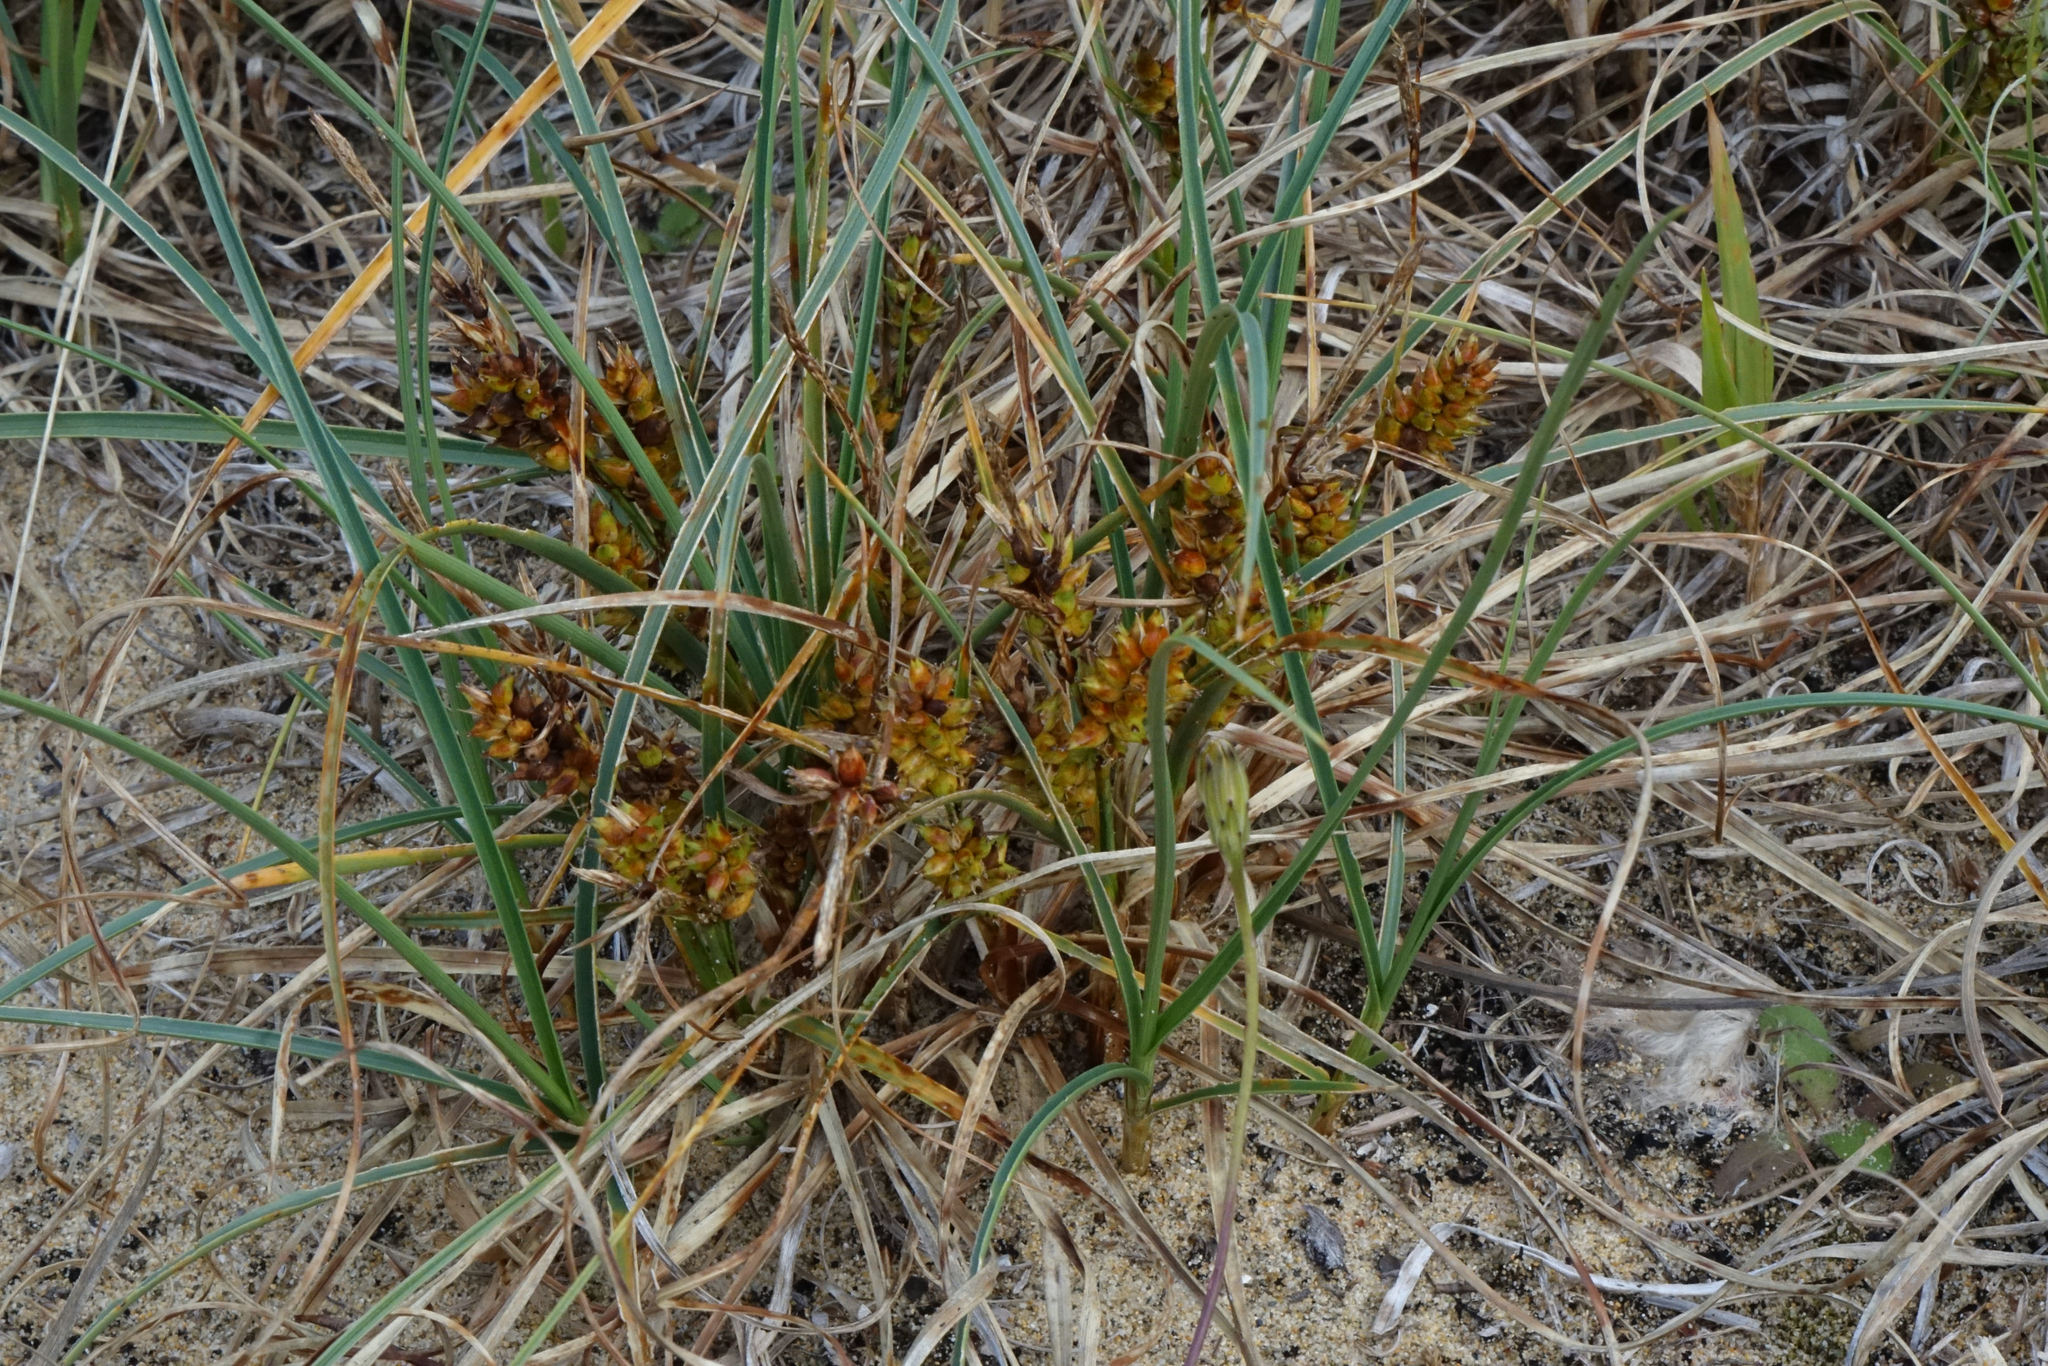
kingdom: Plantae
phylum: Tracheophyta
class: Liliopsida
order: Poales
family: Cyperaceae
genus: Carex
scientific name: Carex pumila
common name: Dwarf sedge
